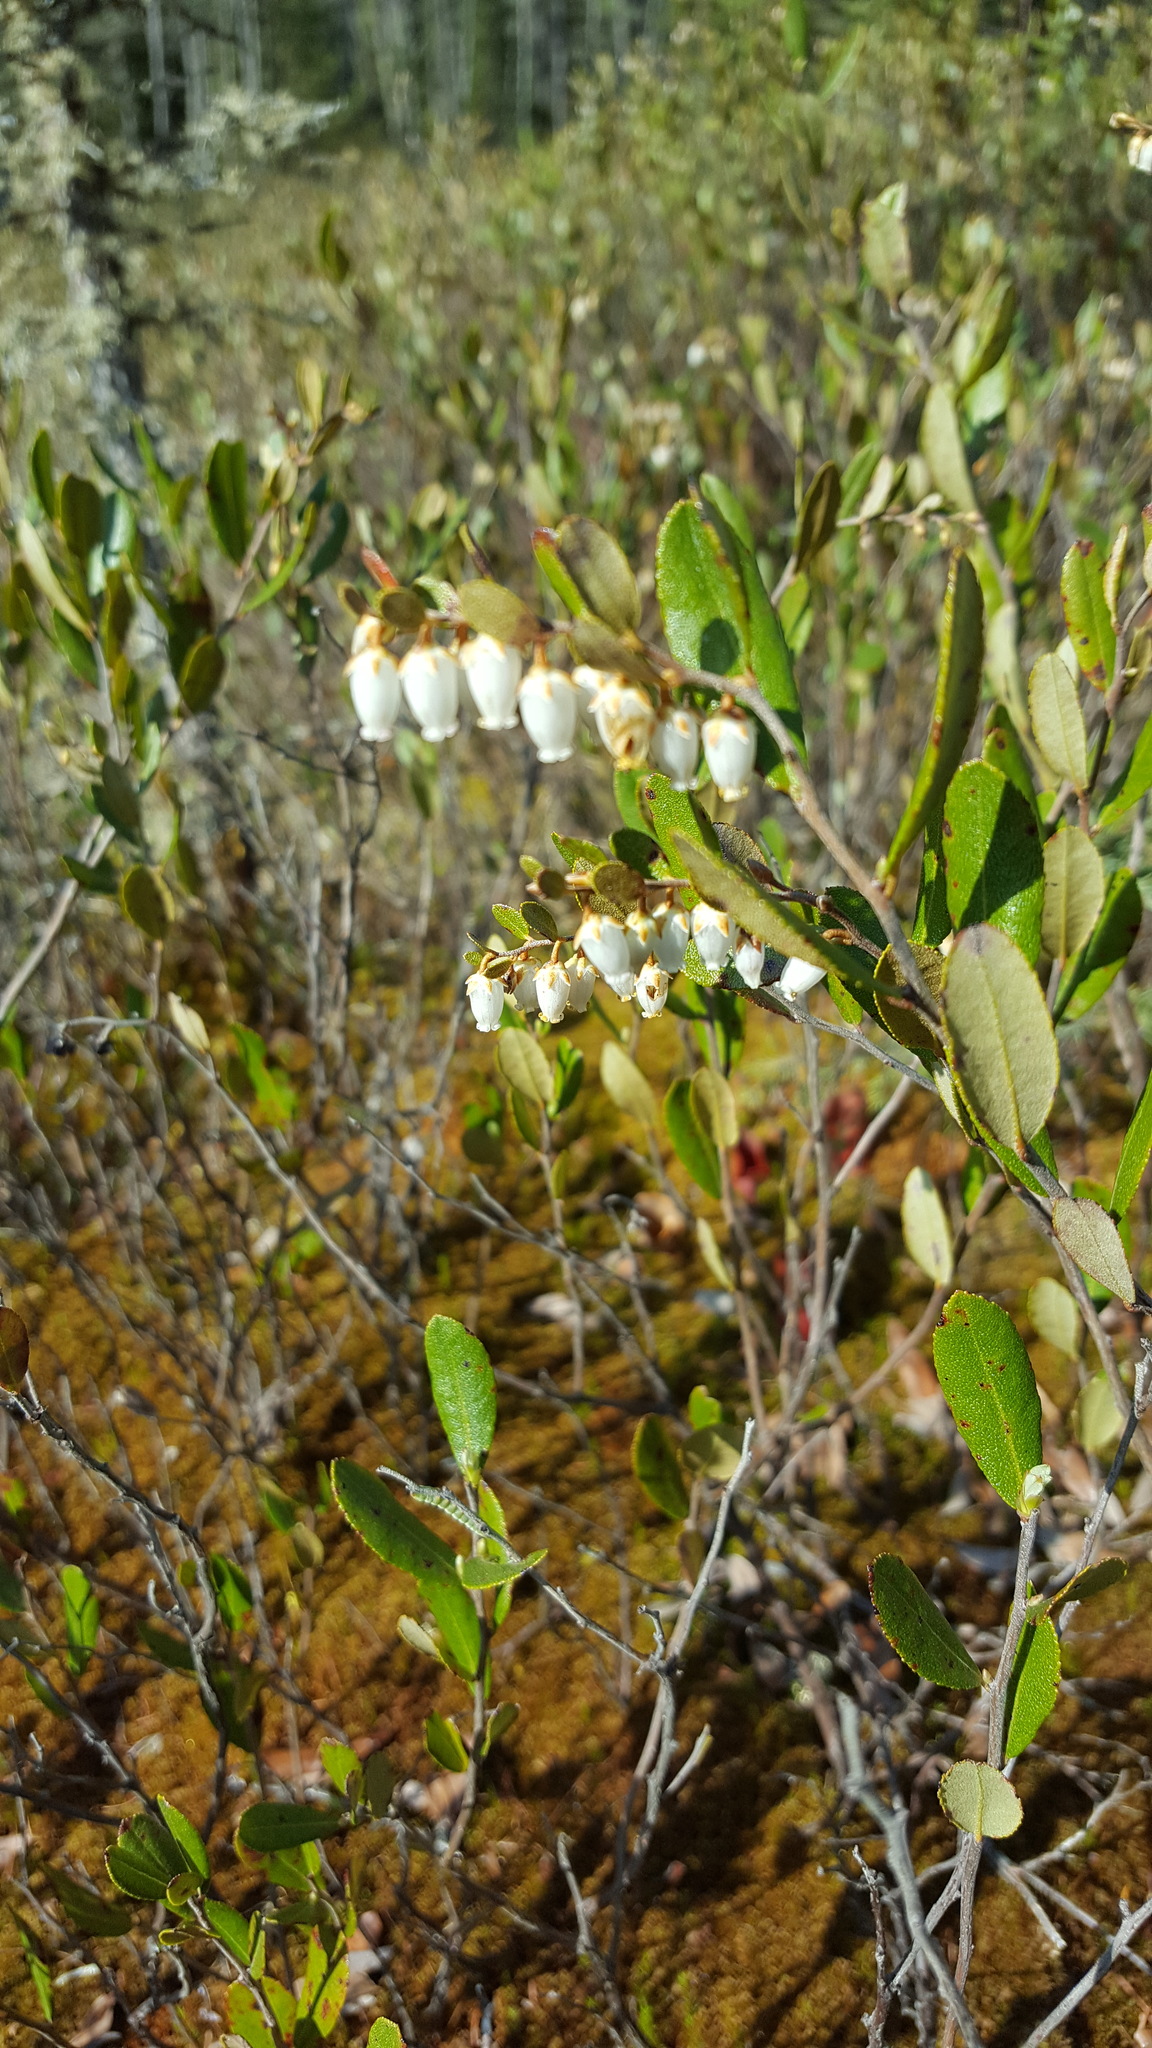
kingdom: Plantae
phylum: Tracheophyta
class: Magnoliopsida
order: Ericales
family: Ericaceae
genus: Chamaedaphne
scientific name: Chamaedaphne calyculata
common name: Leatherleaf
